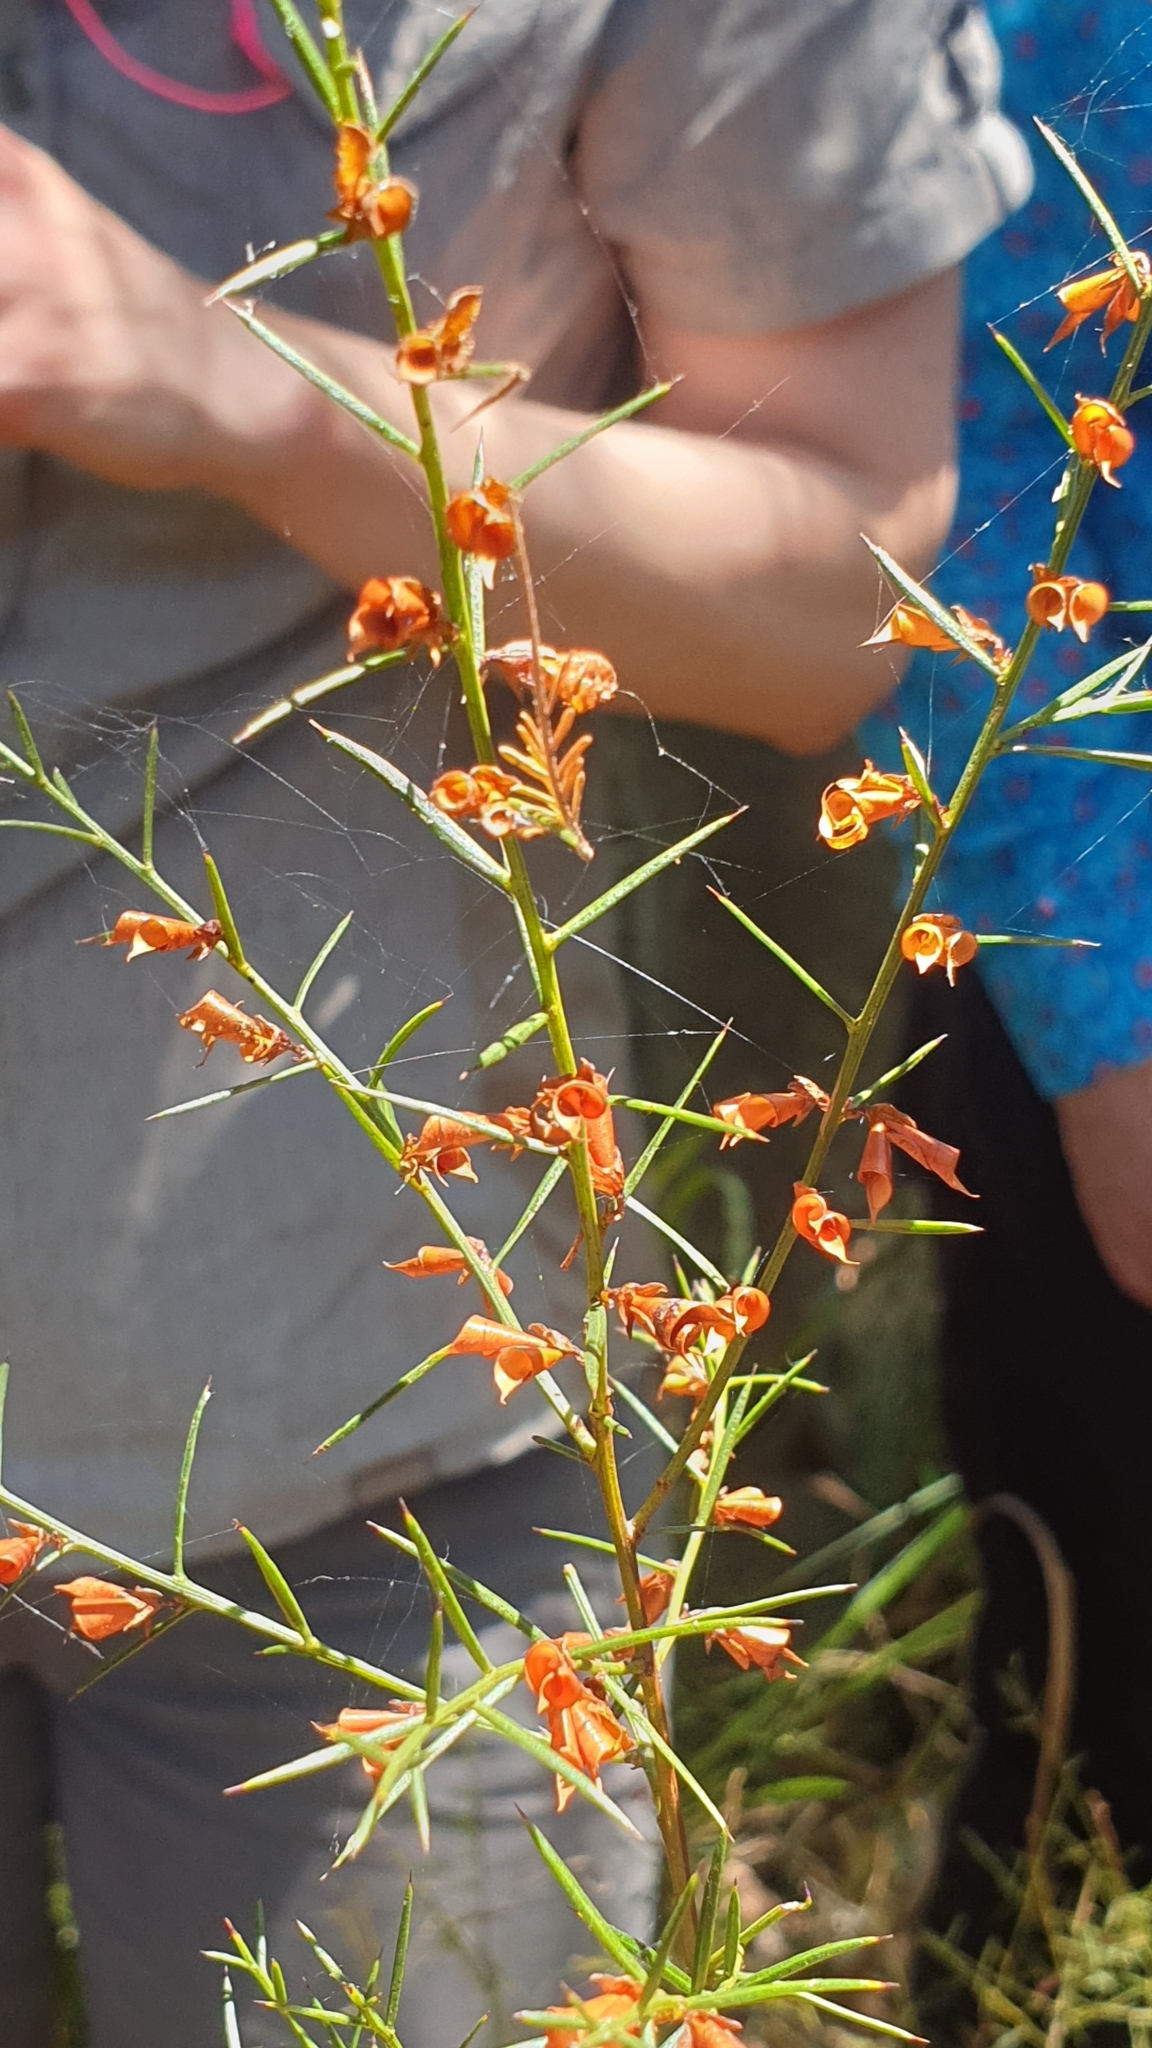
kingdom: Plantae
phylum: Tracheophyta
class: Magnoliopsida
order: Fabales
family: Fabaceae
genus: Daviesia
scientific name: Daviesia acicularis
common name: Sandplain bitter-pea
